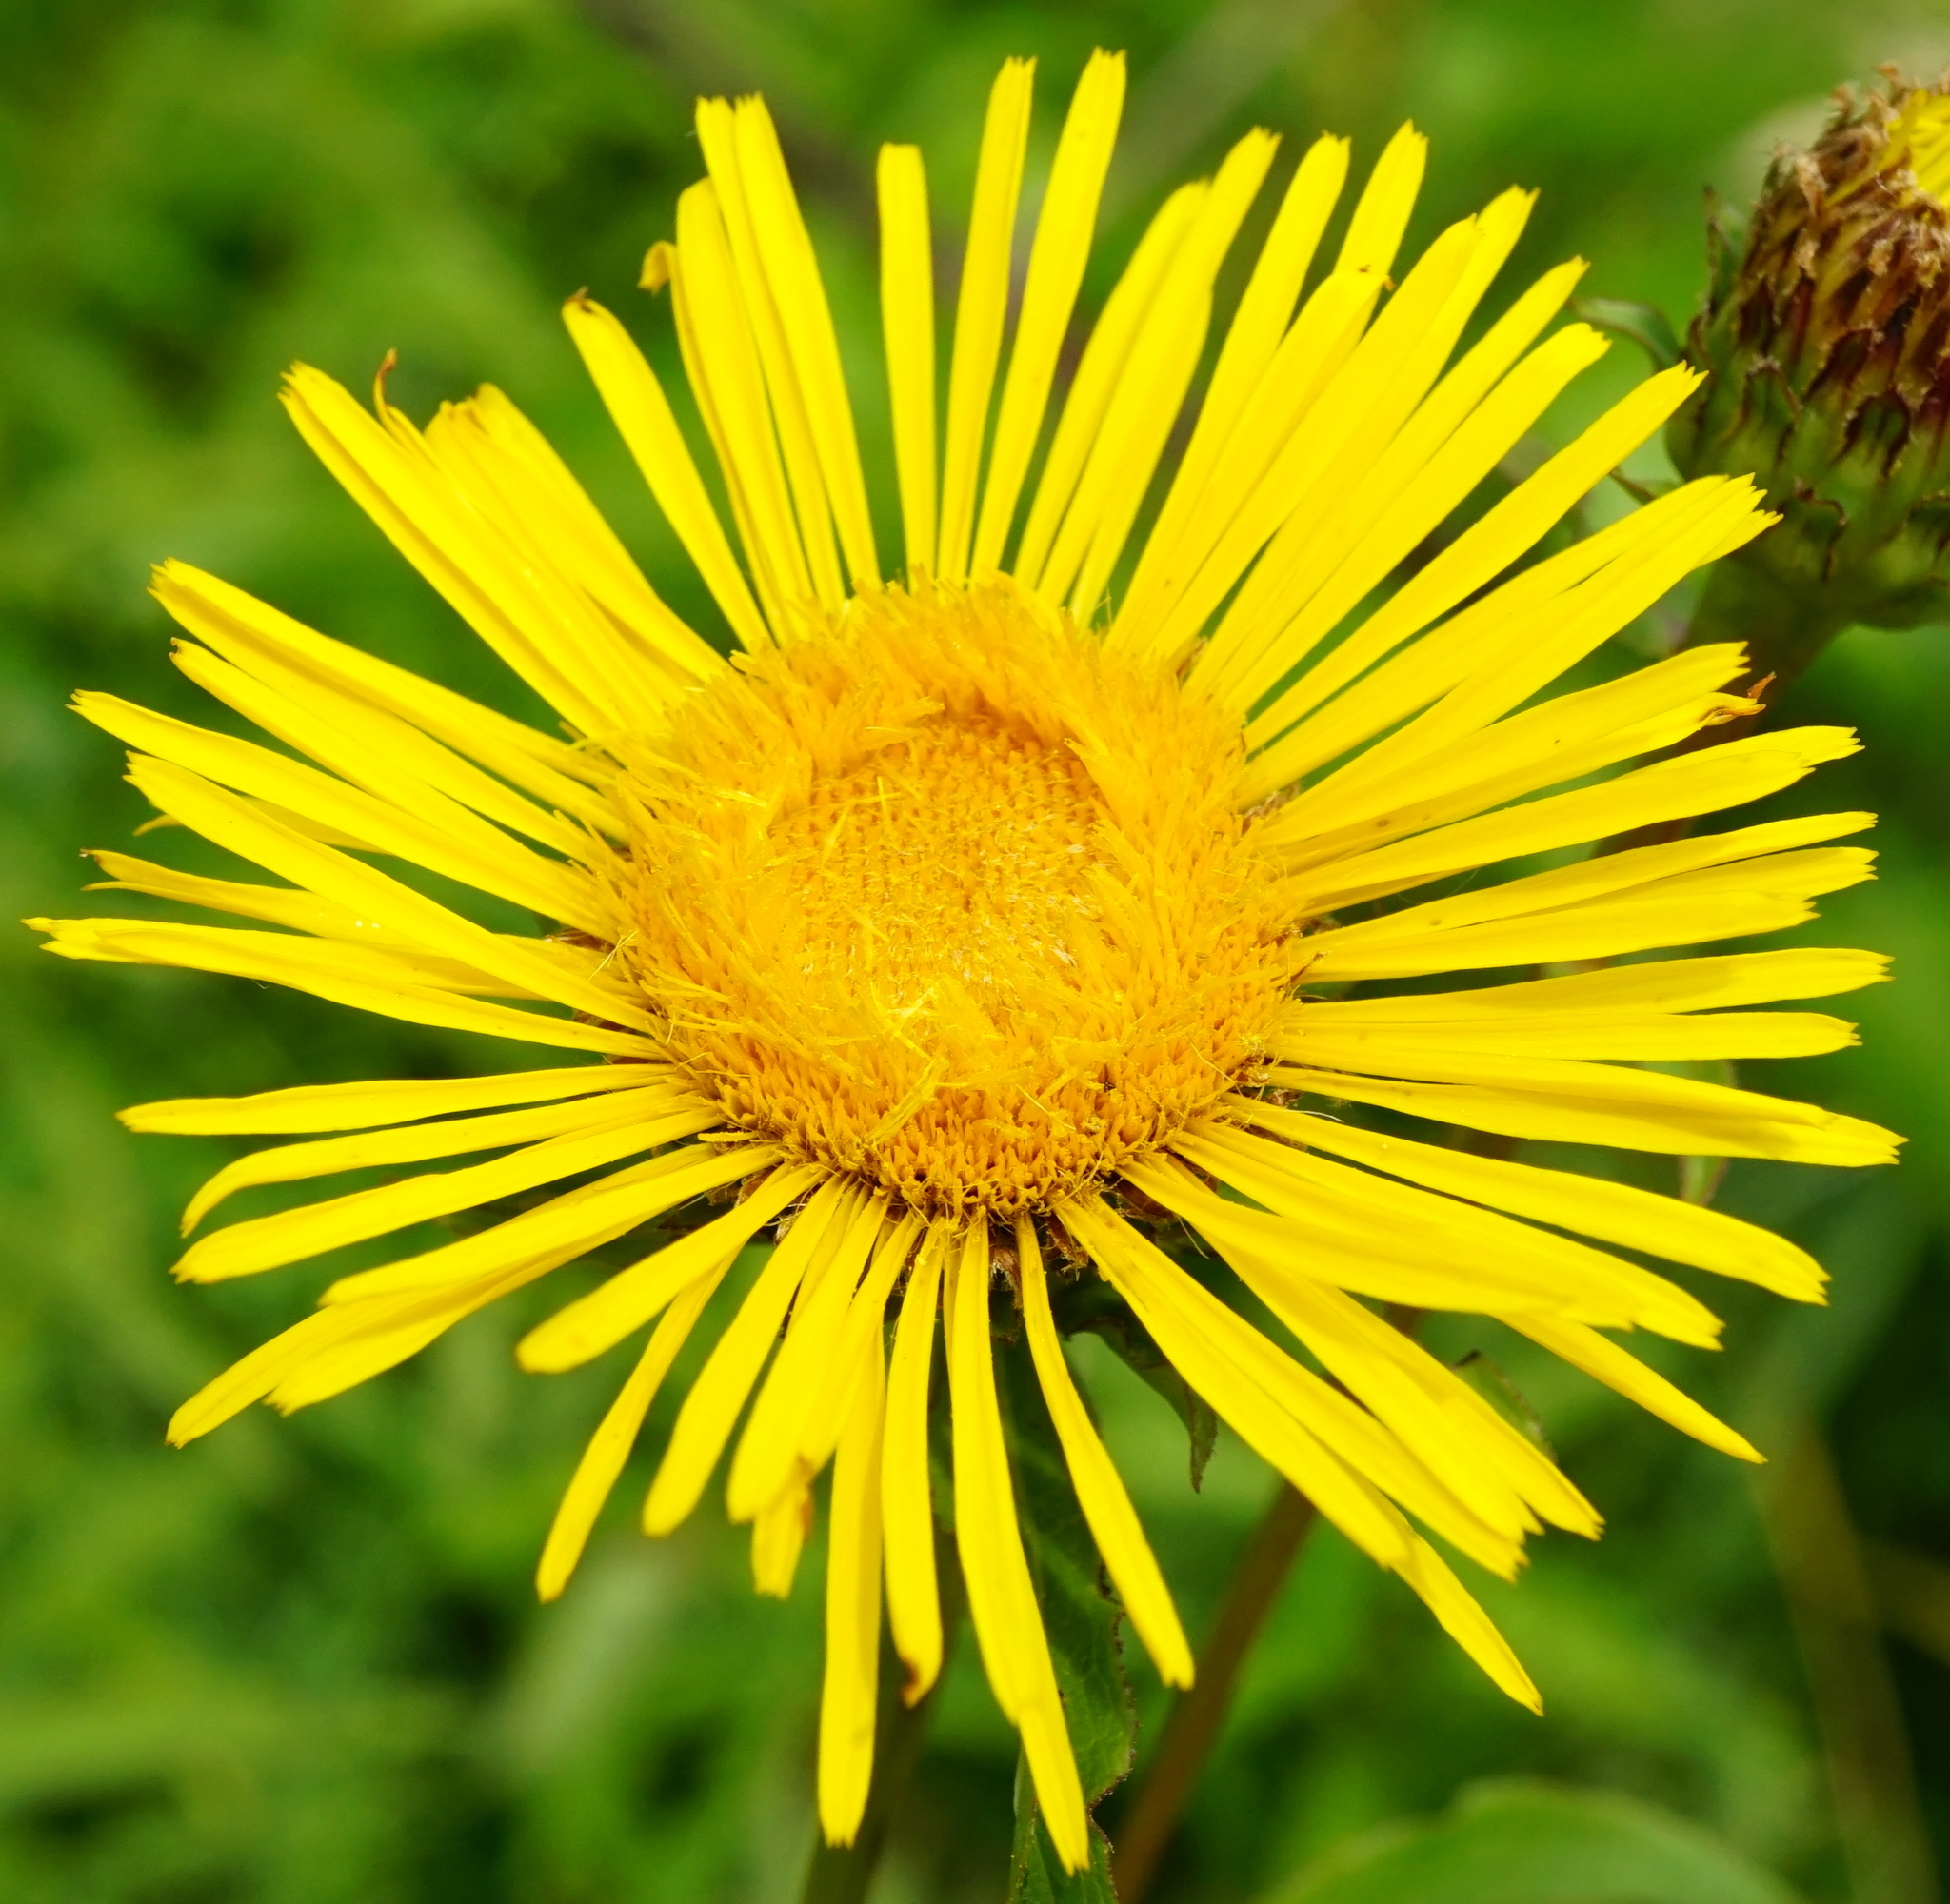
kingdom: Plantae
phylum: Tracheophyta
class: Magnoliopsida
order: Asterales
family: Asteraceae
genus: Pentanema
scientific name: Pentanema salicinum
